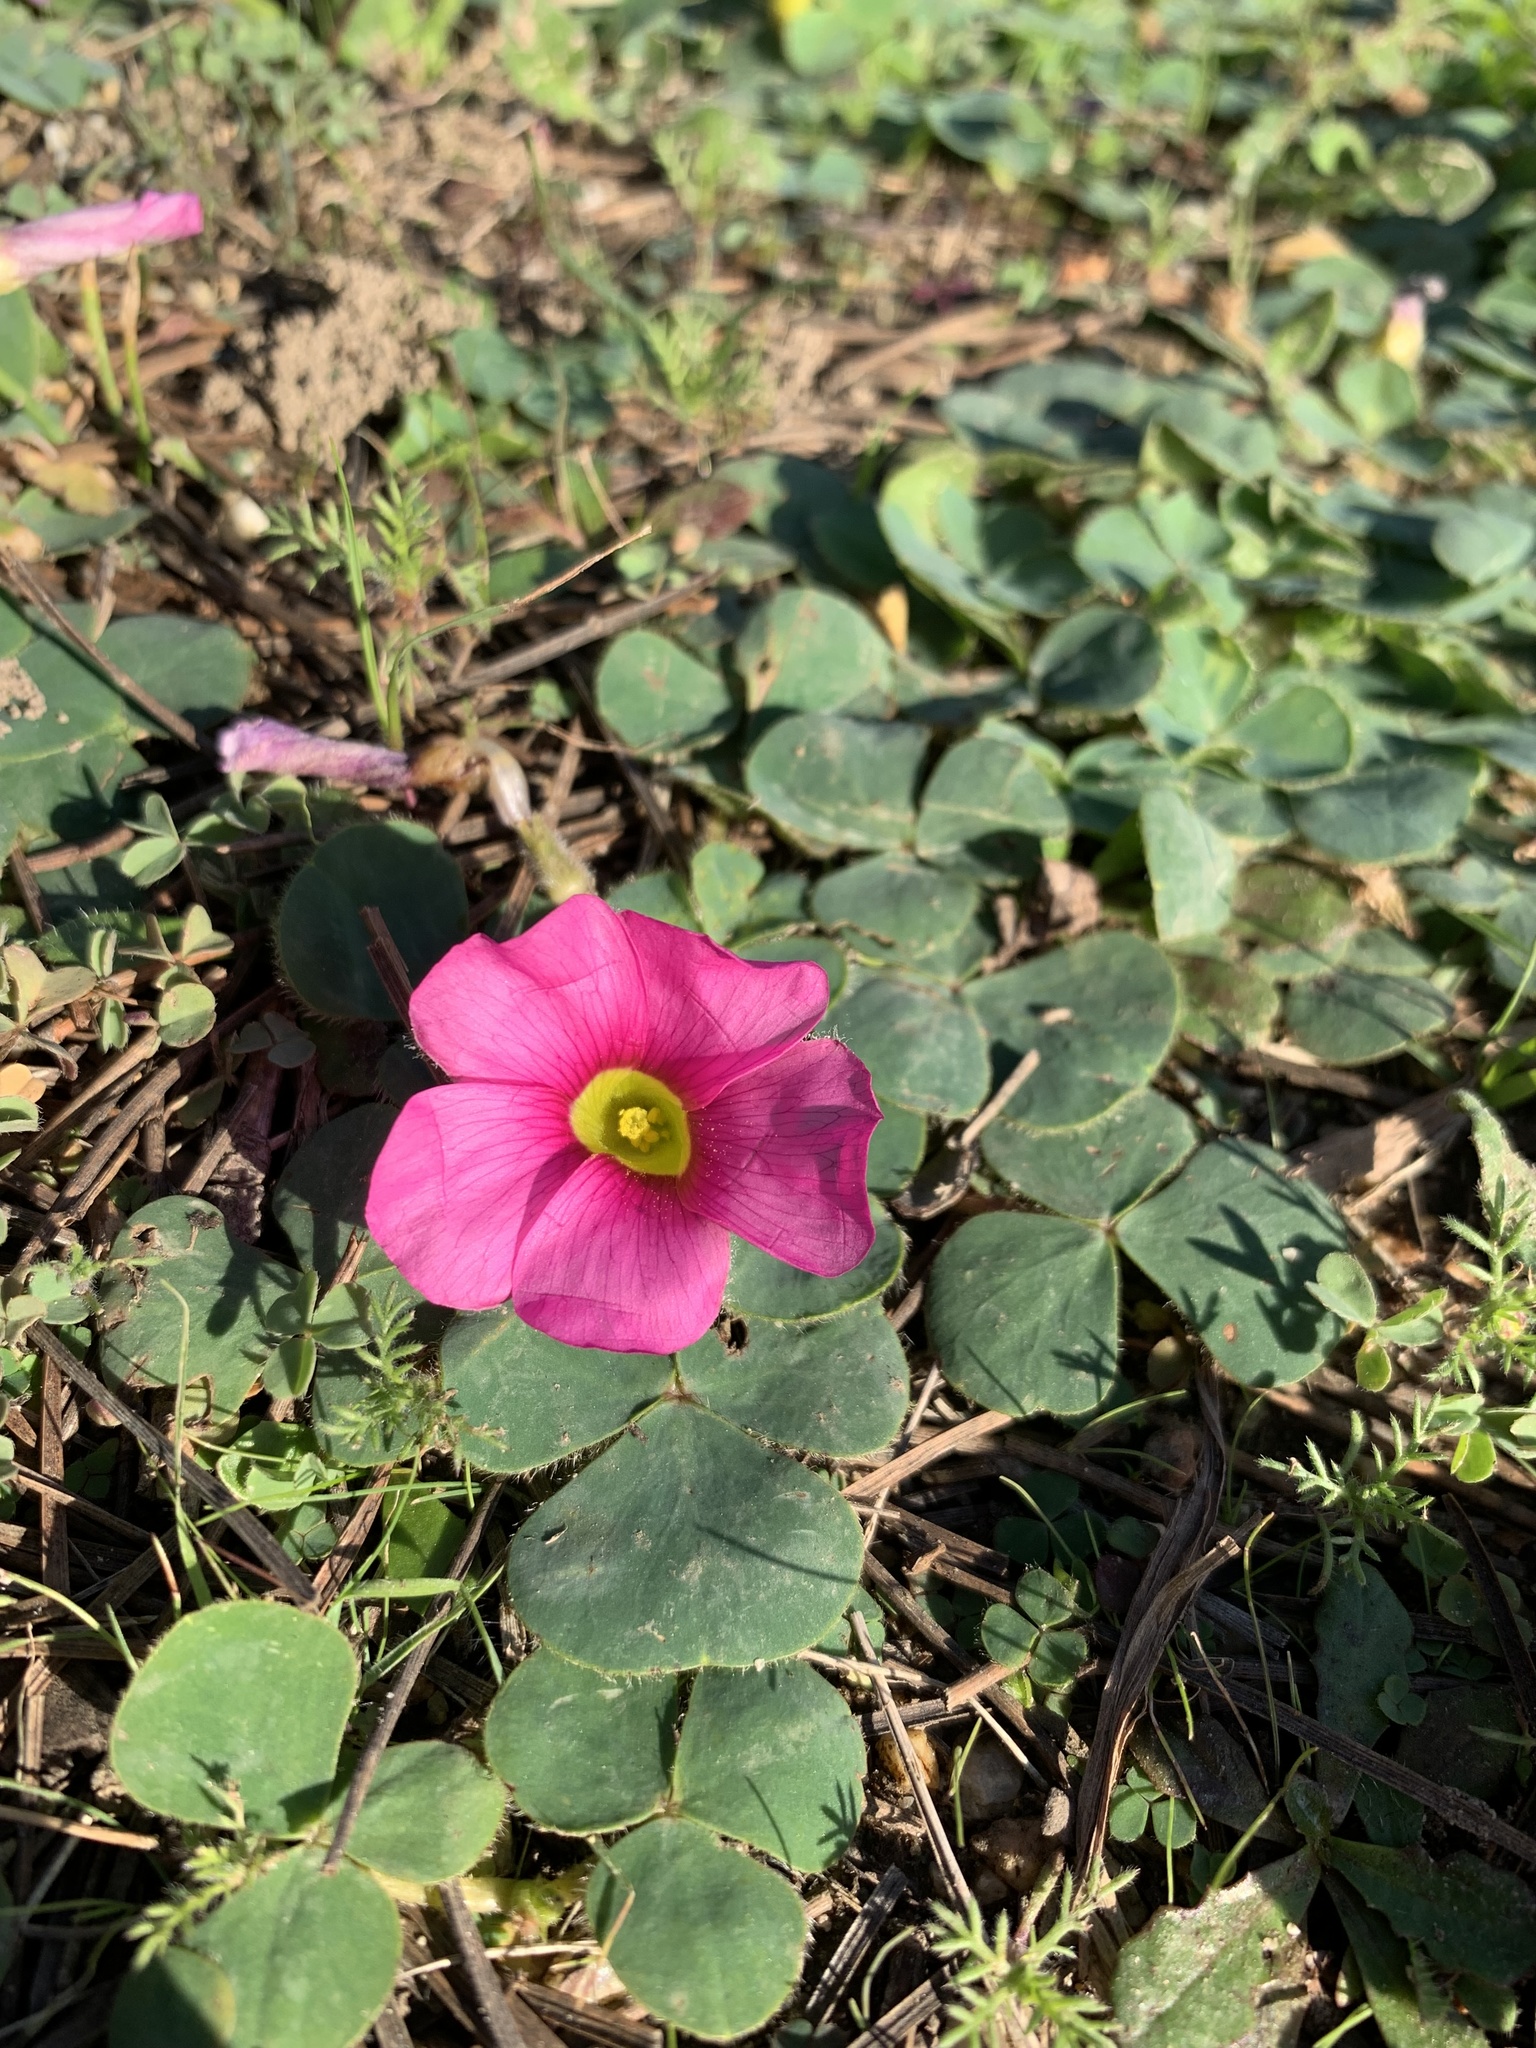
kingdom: Plantae
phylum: Tracheophyta
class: Magnoliopsida
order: Oxalidales
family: Oxalidaceae
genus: Oxalis
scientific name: Oxalis purpurea
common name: Purple woodsorrel
